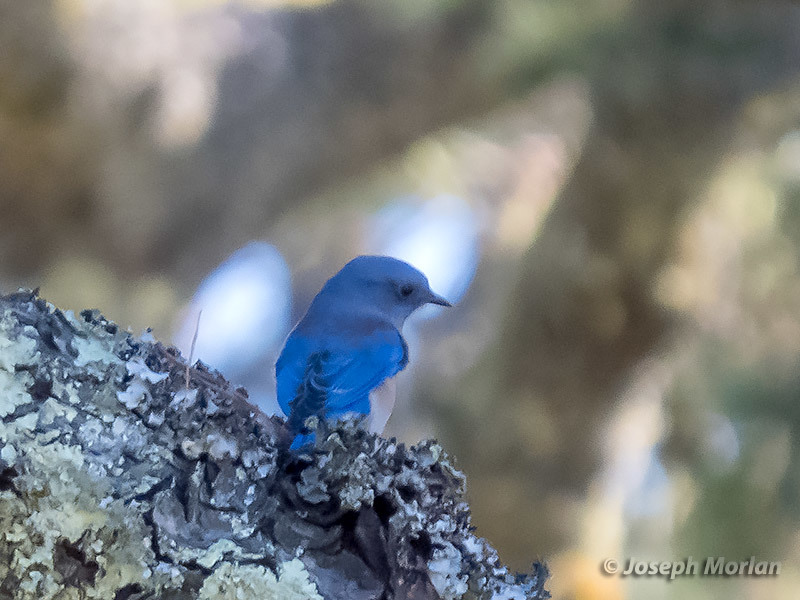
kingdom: Animalia
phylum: Chordata
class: Aves
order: Passeriformes
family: Turdidae
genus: Sialia
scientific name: Sialia mexicana
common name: Western bluebird
